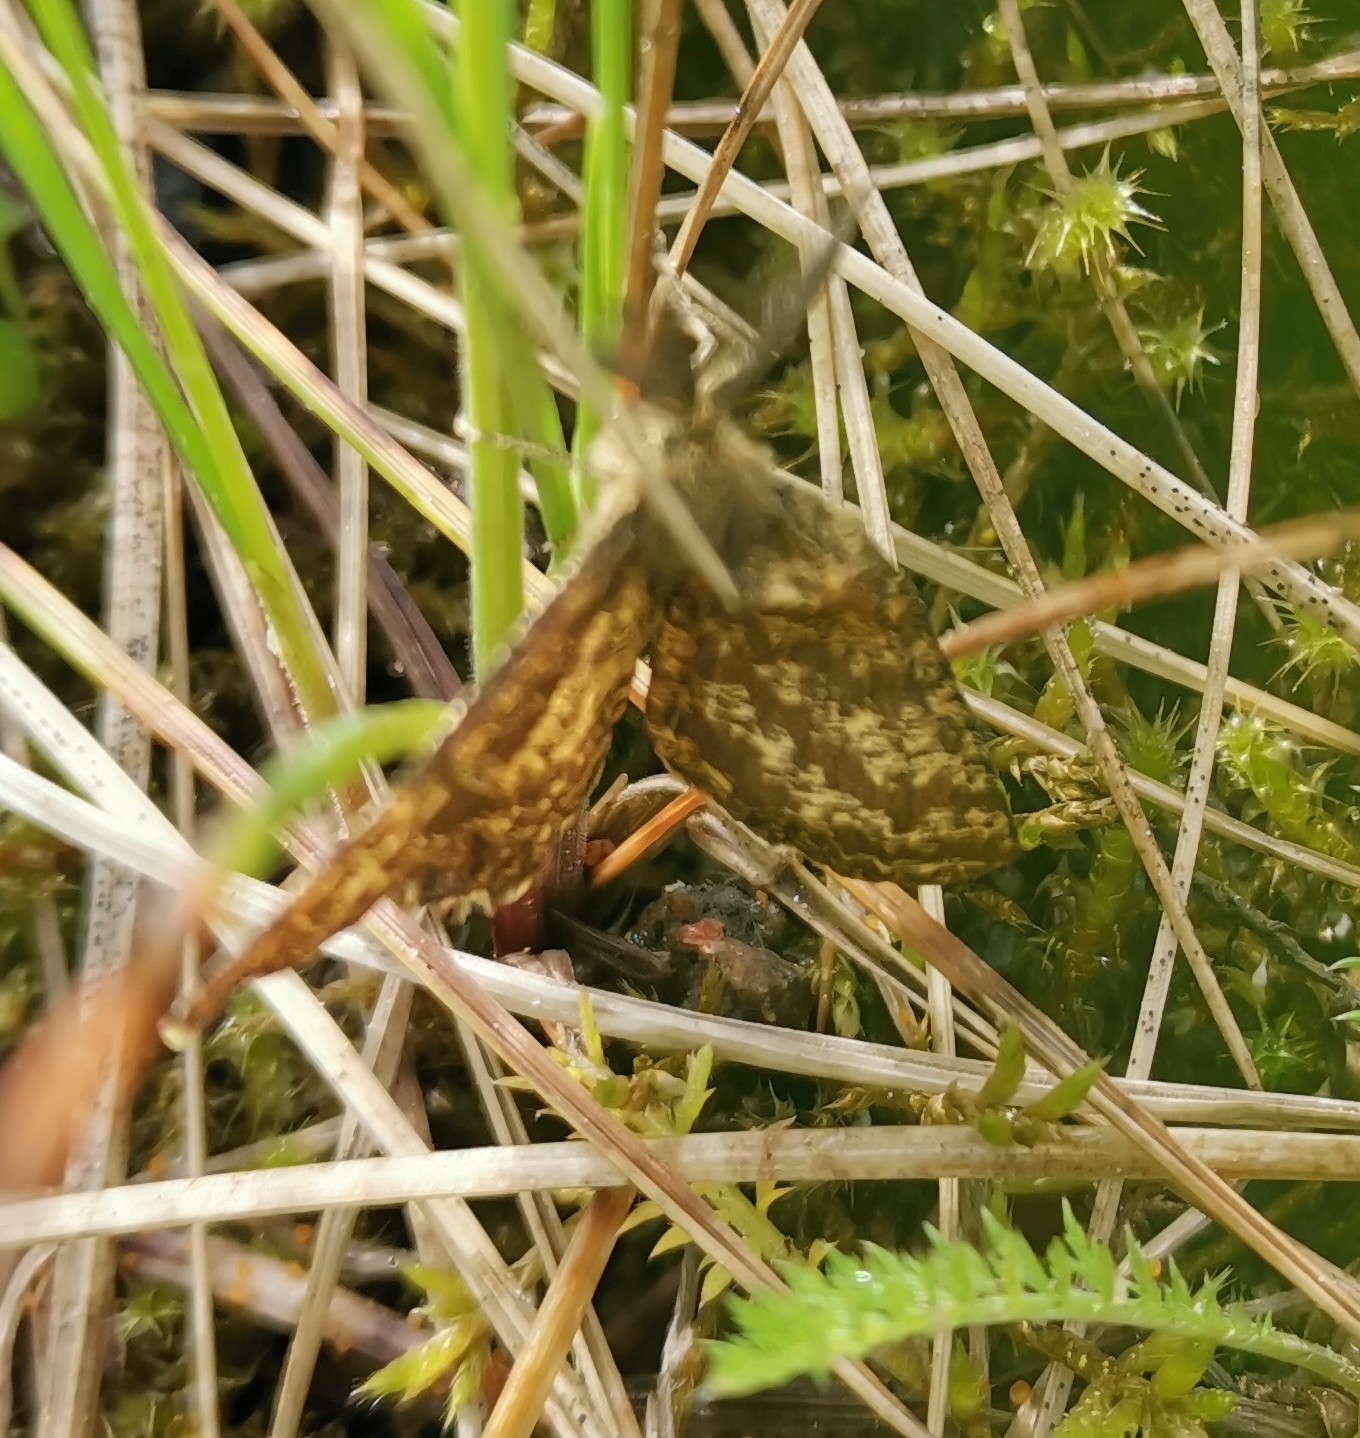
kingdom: Animalia
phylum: Arthropoda
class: Insecta
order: Lepidoptera
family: Geometridae
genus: Ematurga
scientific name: Ematurga atomaria
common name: Common heath
